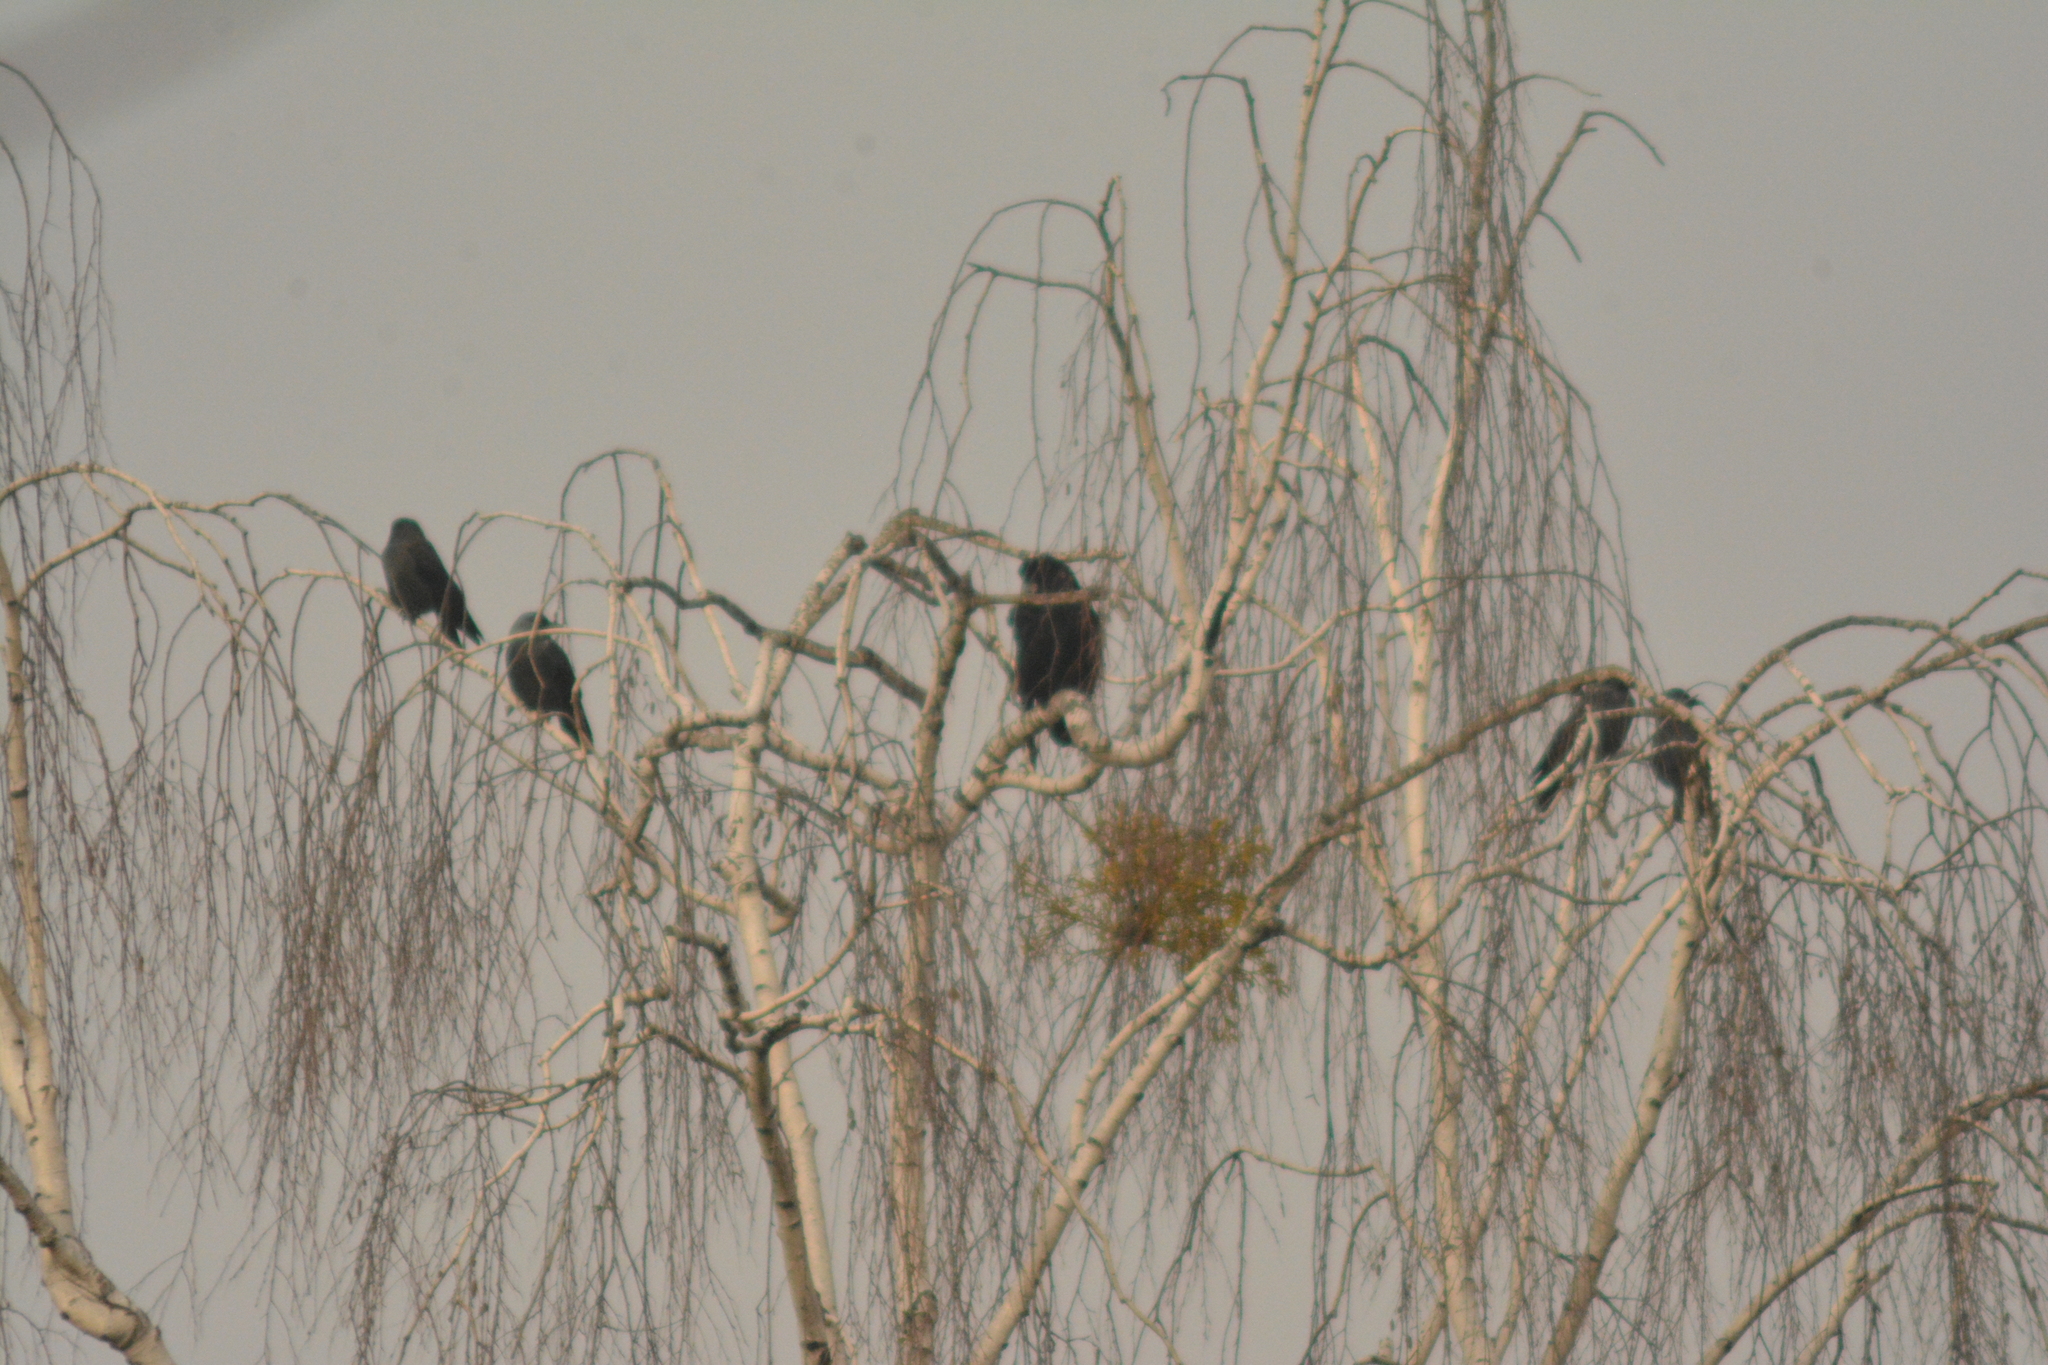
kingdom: Animalia
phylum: Chordata
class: Aves
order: Passeriformes
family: Corvidae
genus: Coloeus
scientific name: Coloeus monedula
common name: Western jackdaw
